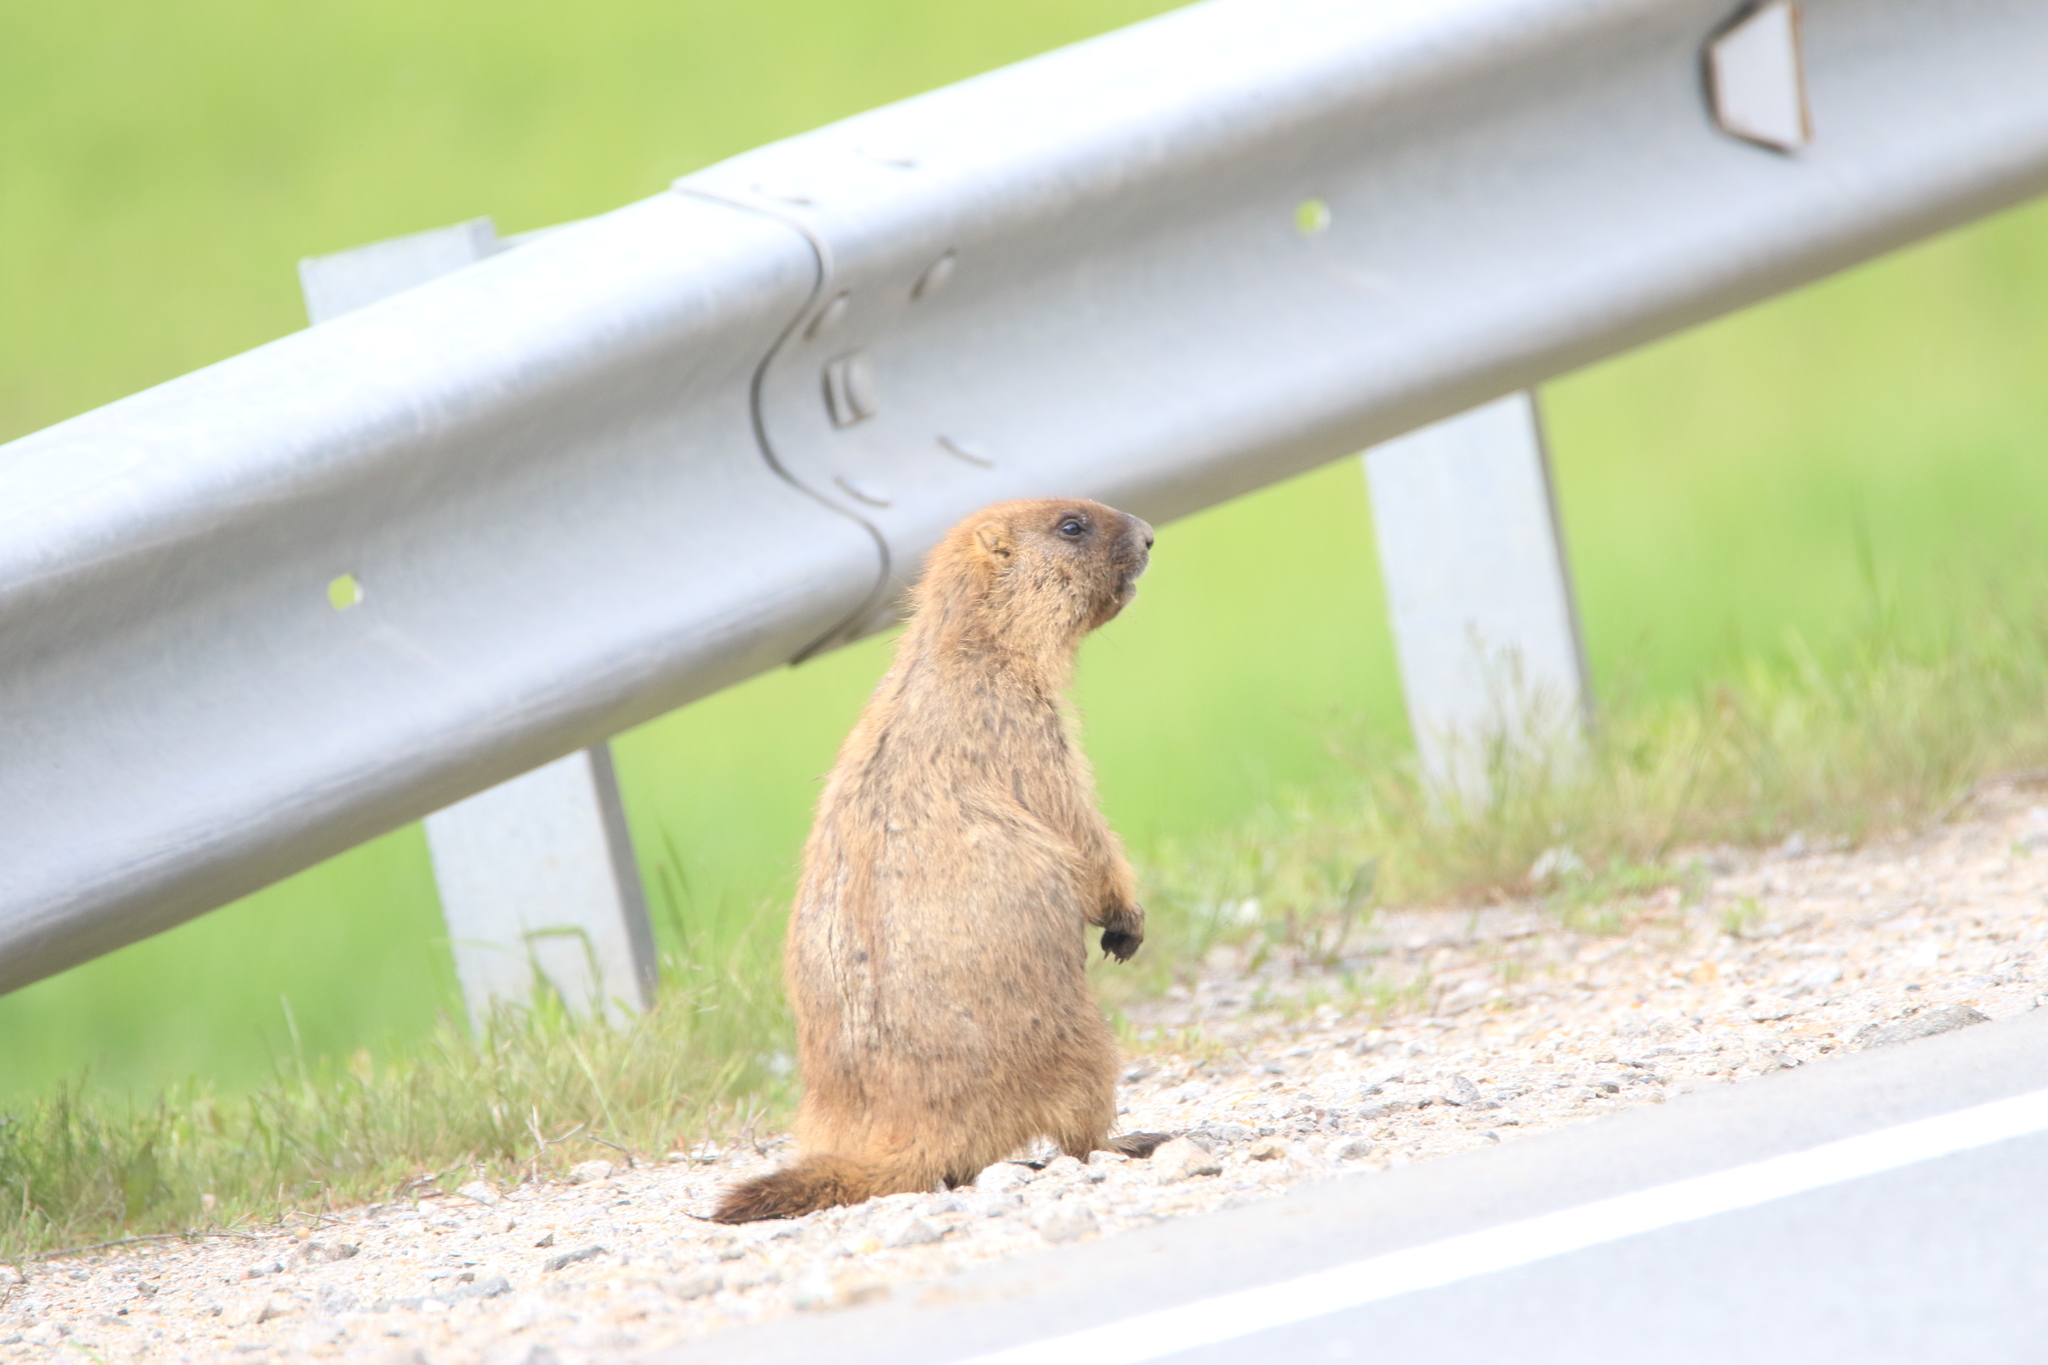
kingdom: Animalia
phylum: Chordata
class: Mammalia
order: Rodentia
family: Sciuridae
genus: Marmota
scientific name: Marmota kastschenkoi
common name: Forest steppe marmot
